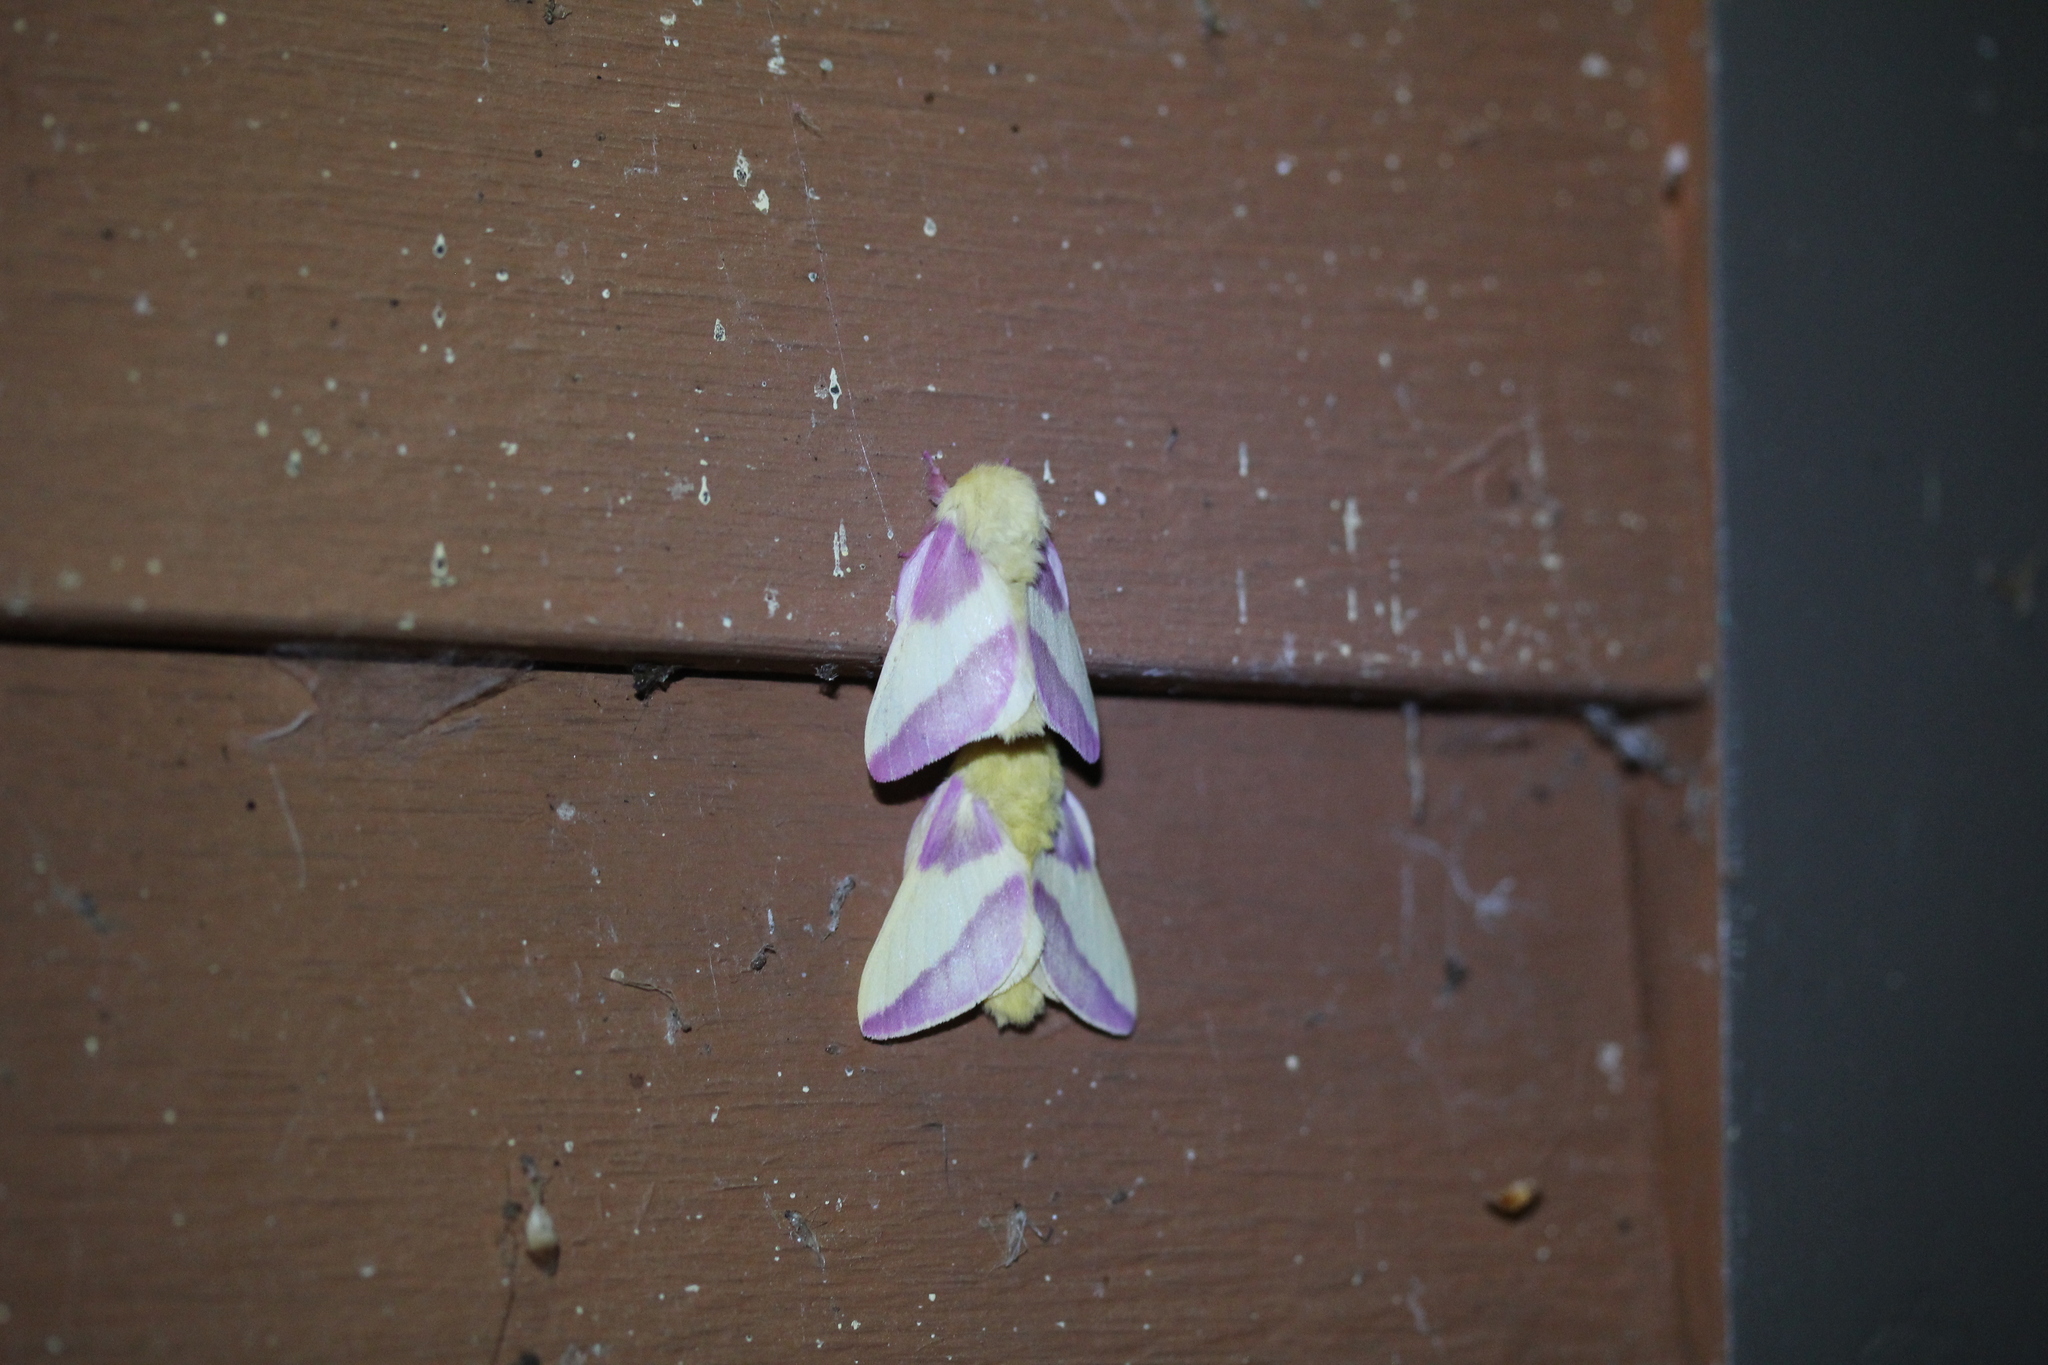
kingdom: Animalia
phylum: Arthropoda
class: Insecta
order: Lepidoptera
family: Saturniidae
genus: Dryocampa
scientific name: Dryocampa rubicunda
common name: Rosy maple moth
